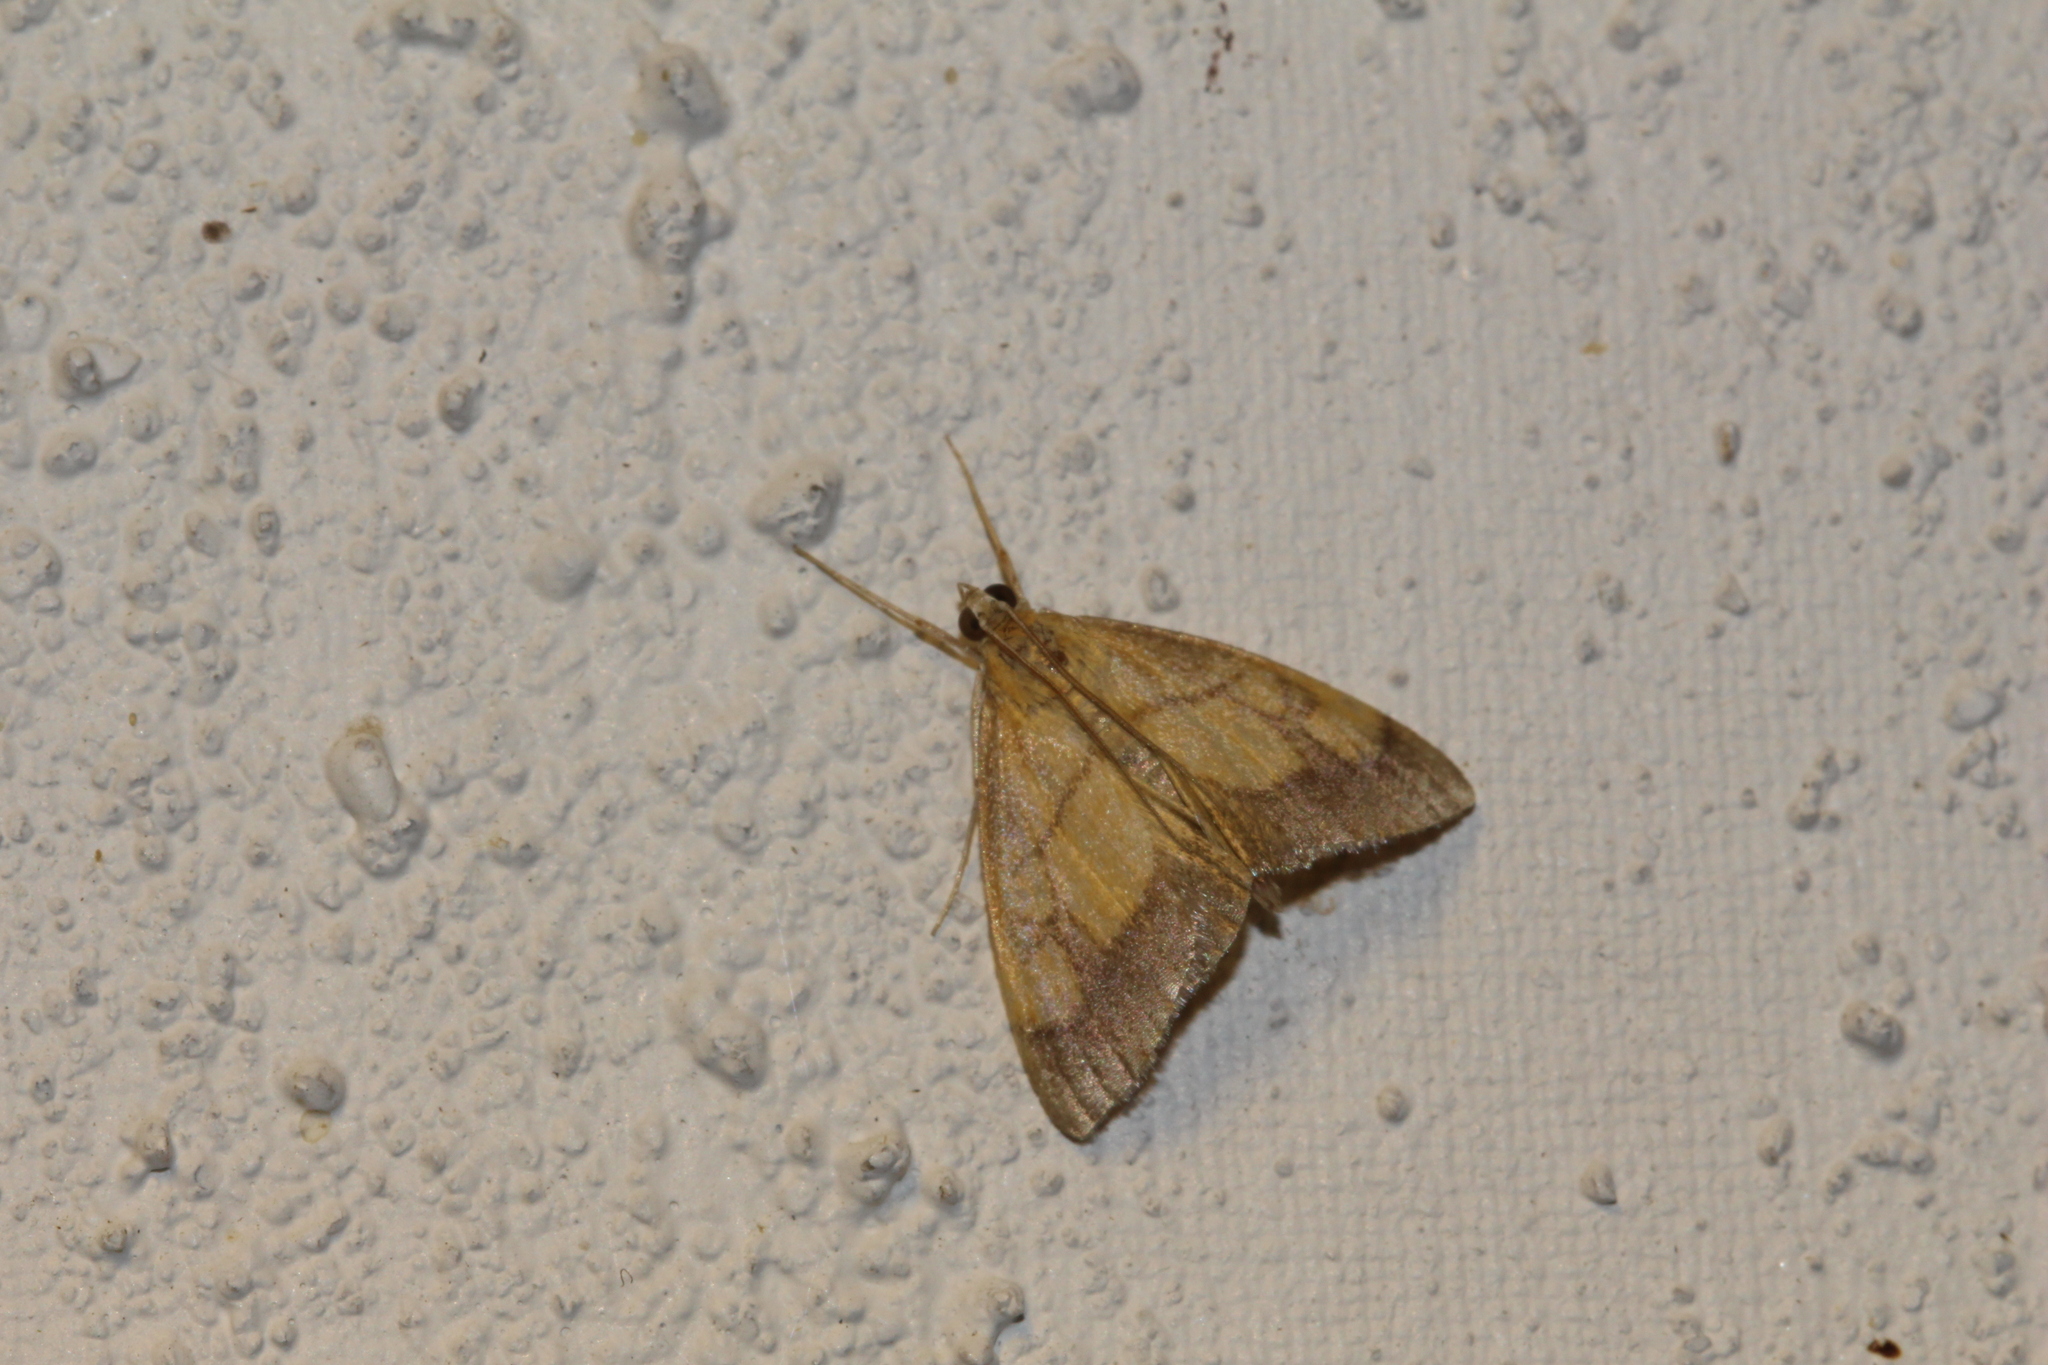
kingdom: Animalia
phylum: Arthropoda
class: Insecta
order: Lepidoptera
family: Crambidae
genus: Evergestis
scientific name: Evergestis limbata
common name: Dark bordered pearl
